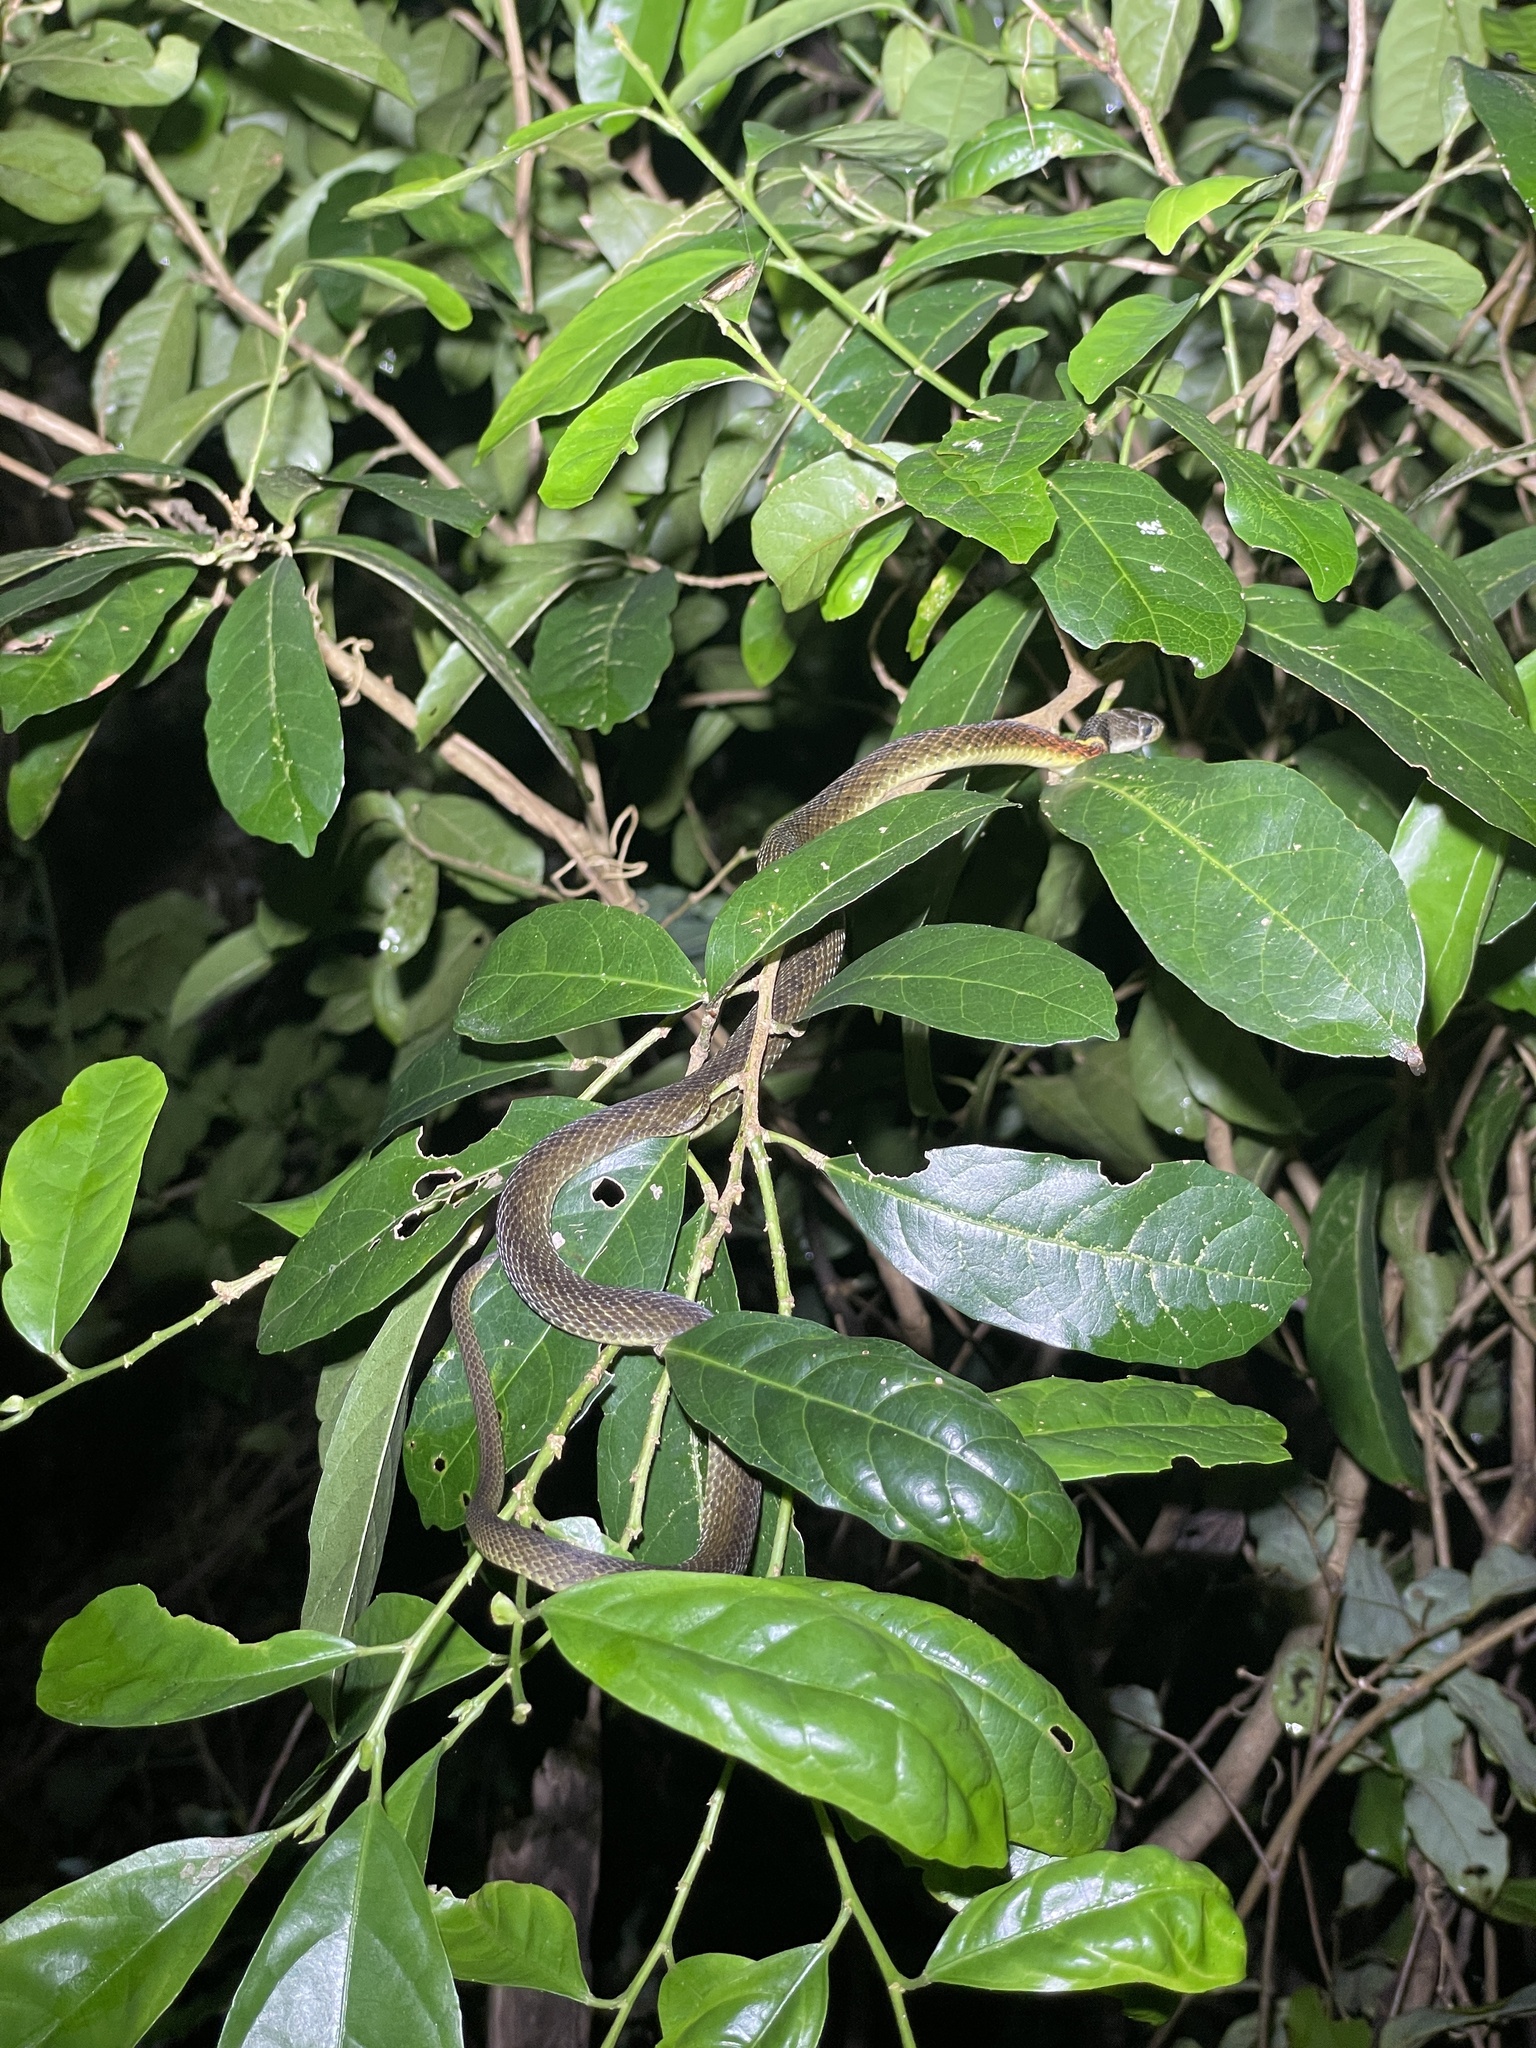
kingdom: Animalia
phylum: Chordata
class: Squamata
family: Colubridae
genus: Rhabdophis
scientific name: Rhabdophis helleri
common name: Heller’s red-necked keelback
